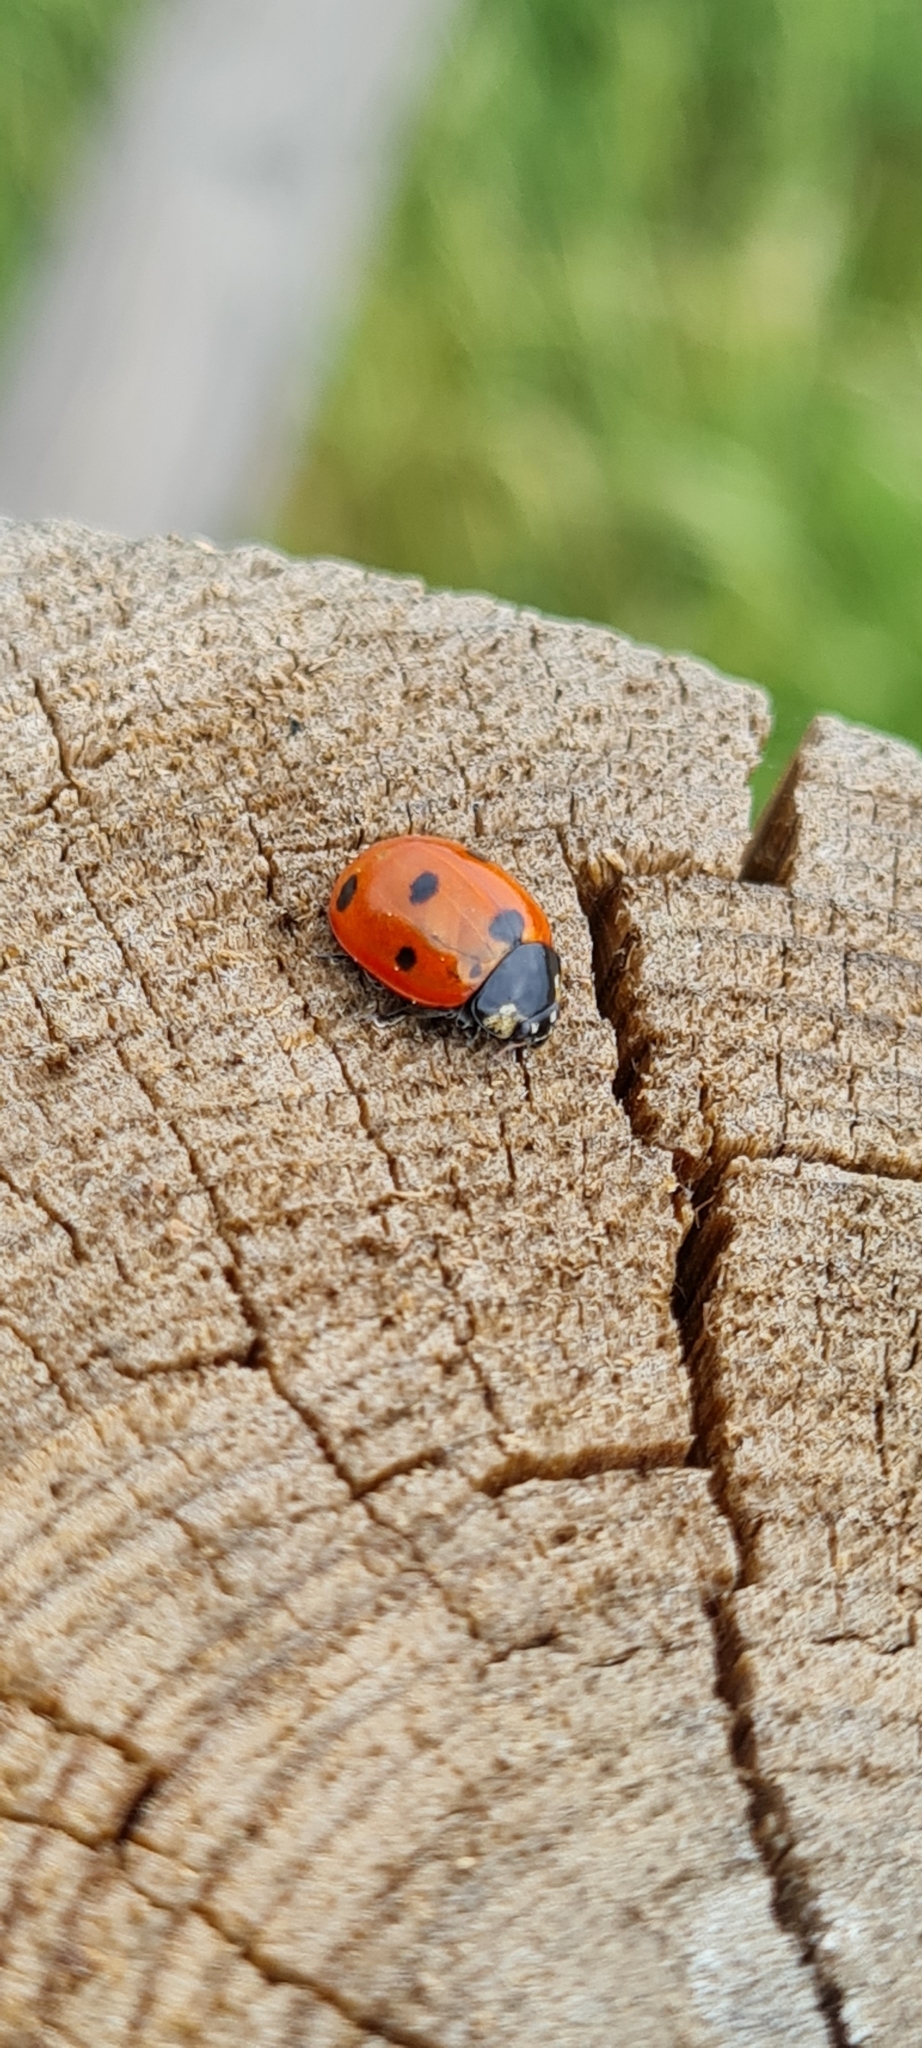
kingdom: Animalia
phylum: Arthropoda
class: Insecta
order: Coleoptera
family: Coccinellidae
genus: Coccinella
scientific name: Coccinella septempunctata
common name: Sevenspotted lady beetle
